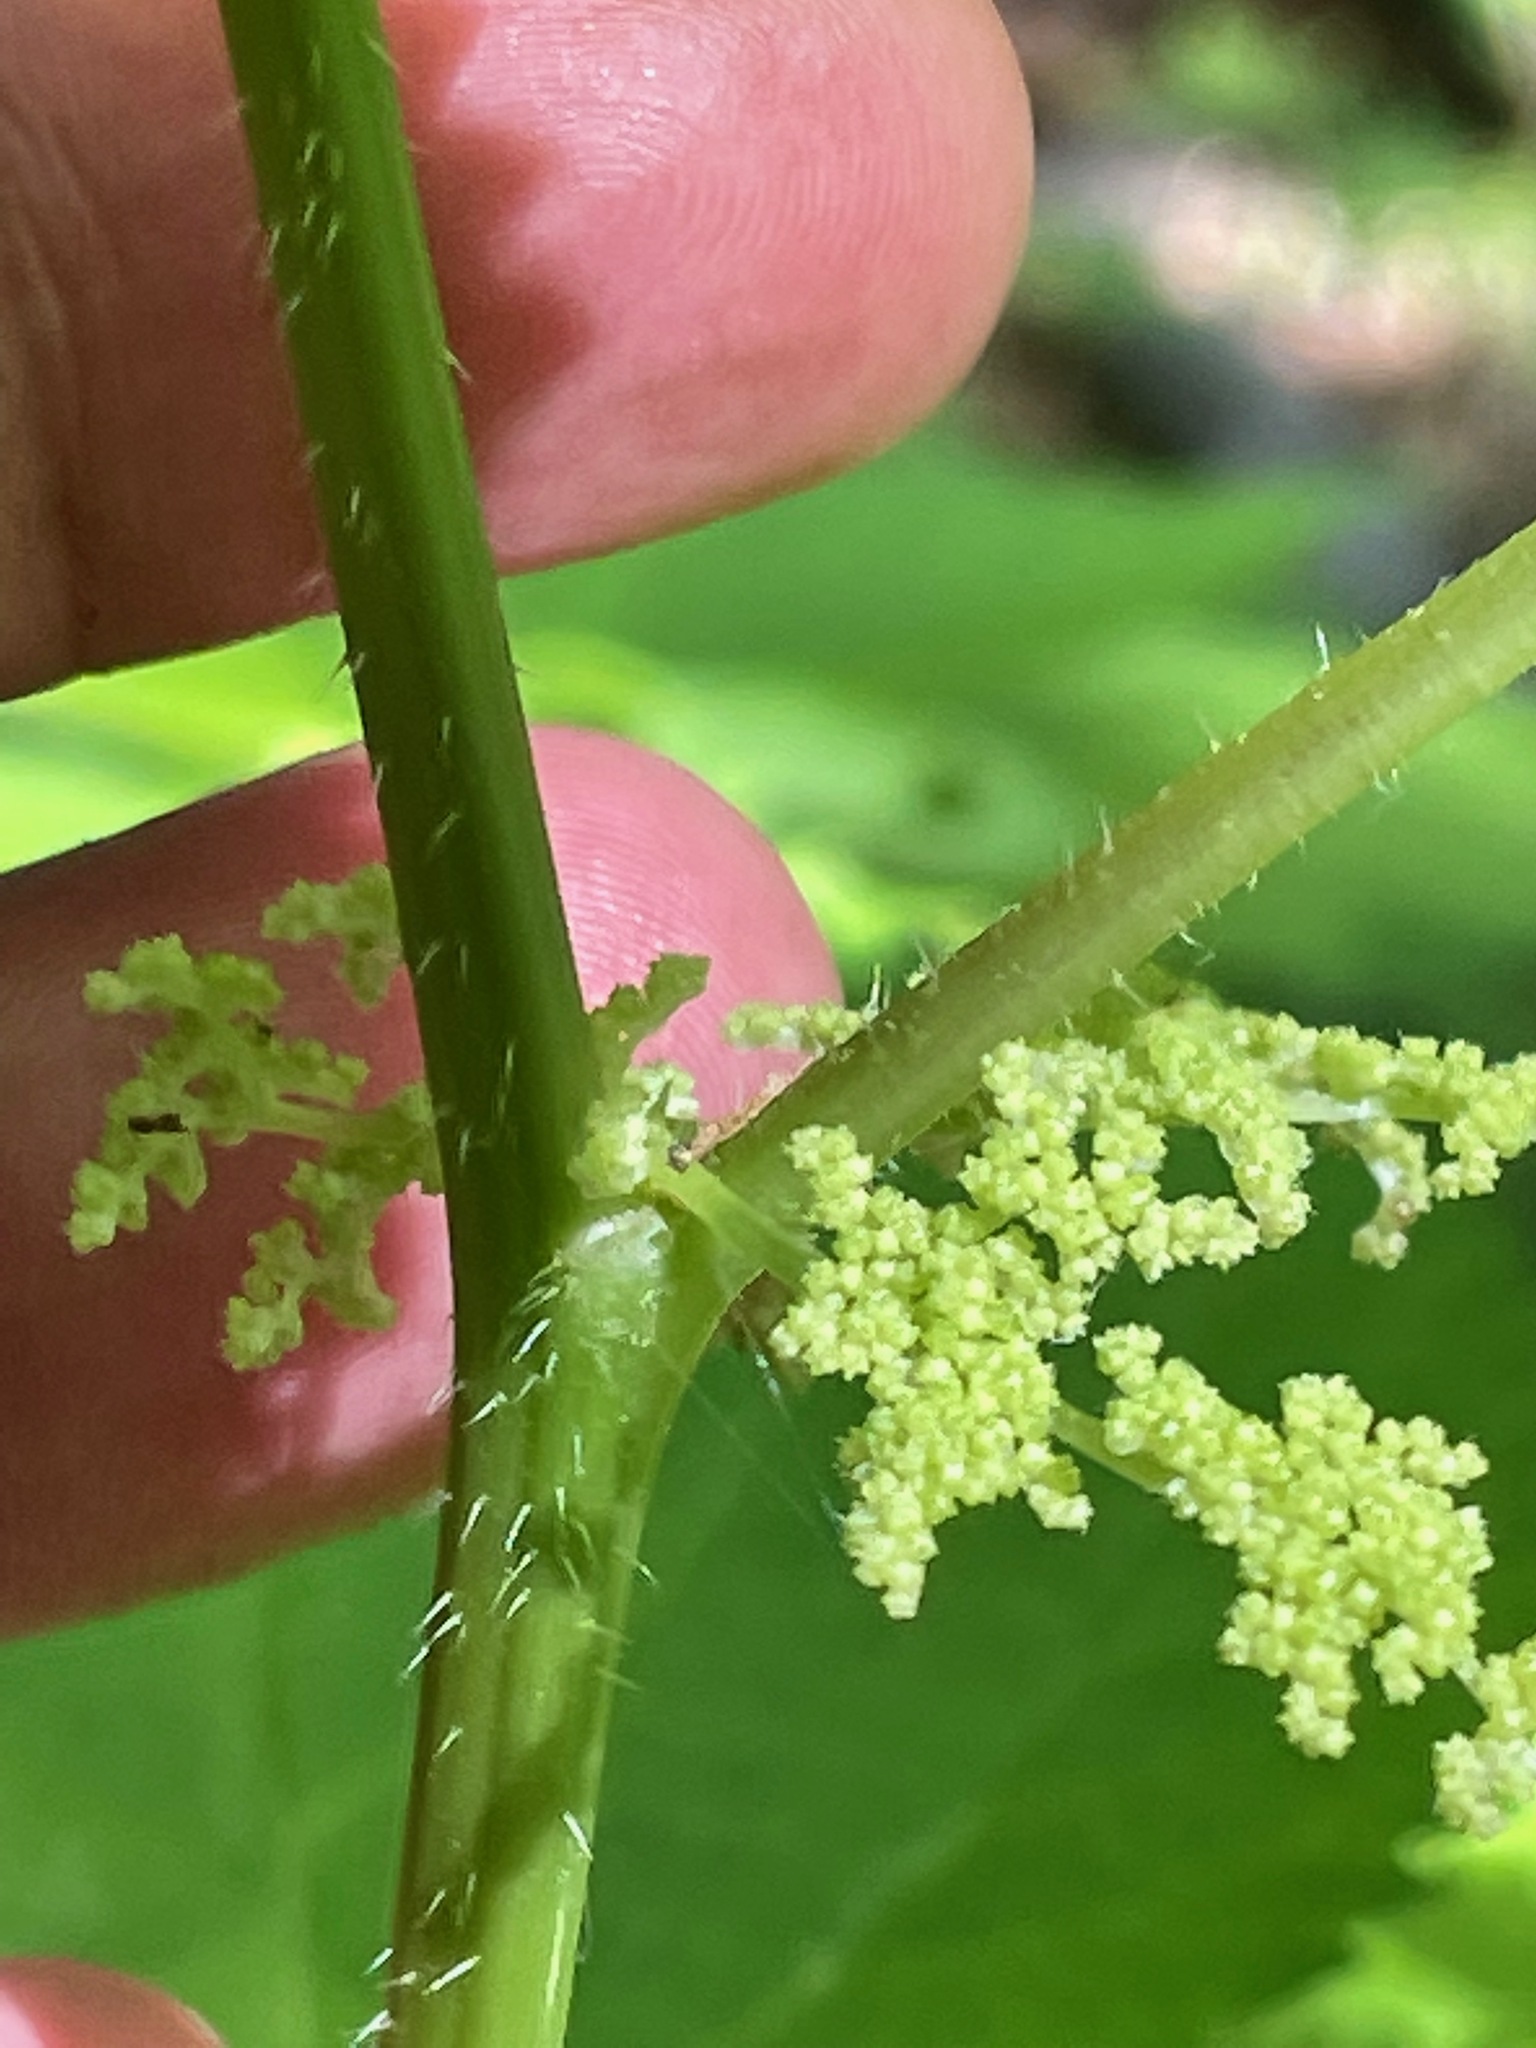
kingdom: Plantae
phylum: Tracheophyta
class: Magnoliopsida
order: Rosales
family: Urticaceae
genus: Laportea
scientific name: Laportea canadensis
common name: Canada nettle
